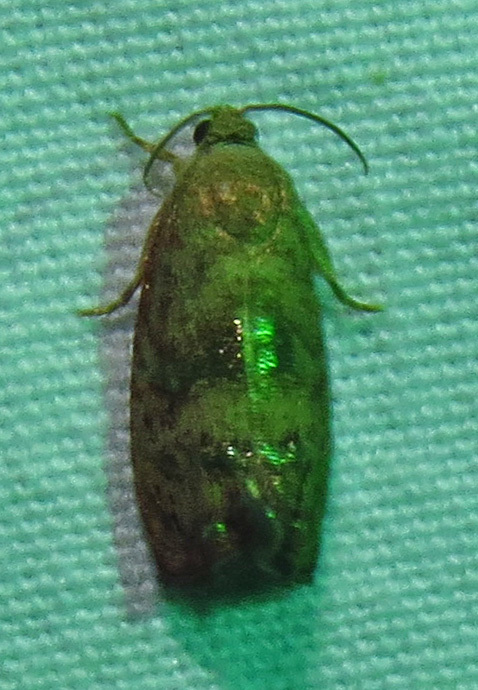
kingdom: Animalia
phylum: Arthropoda
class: Insecta
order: Lepidoptera
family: Tortricidae
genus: Cydia
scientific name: Cydia latiferreana
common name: Filbertworm moth
